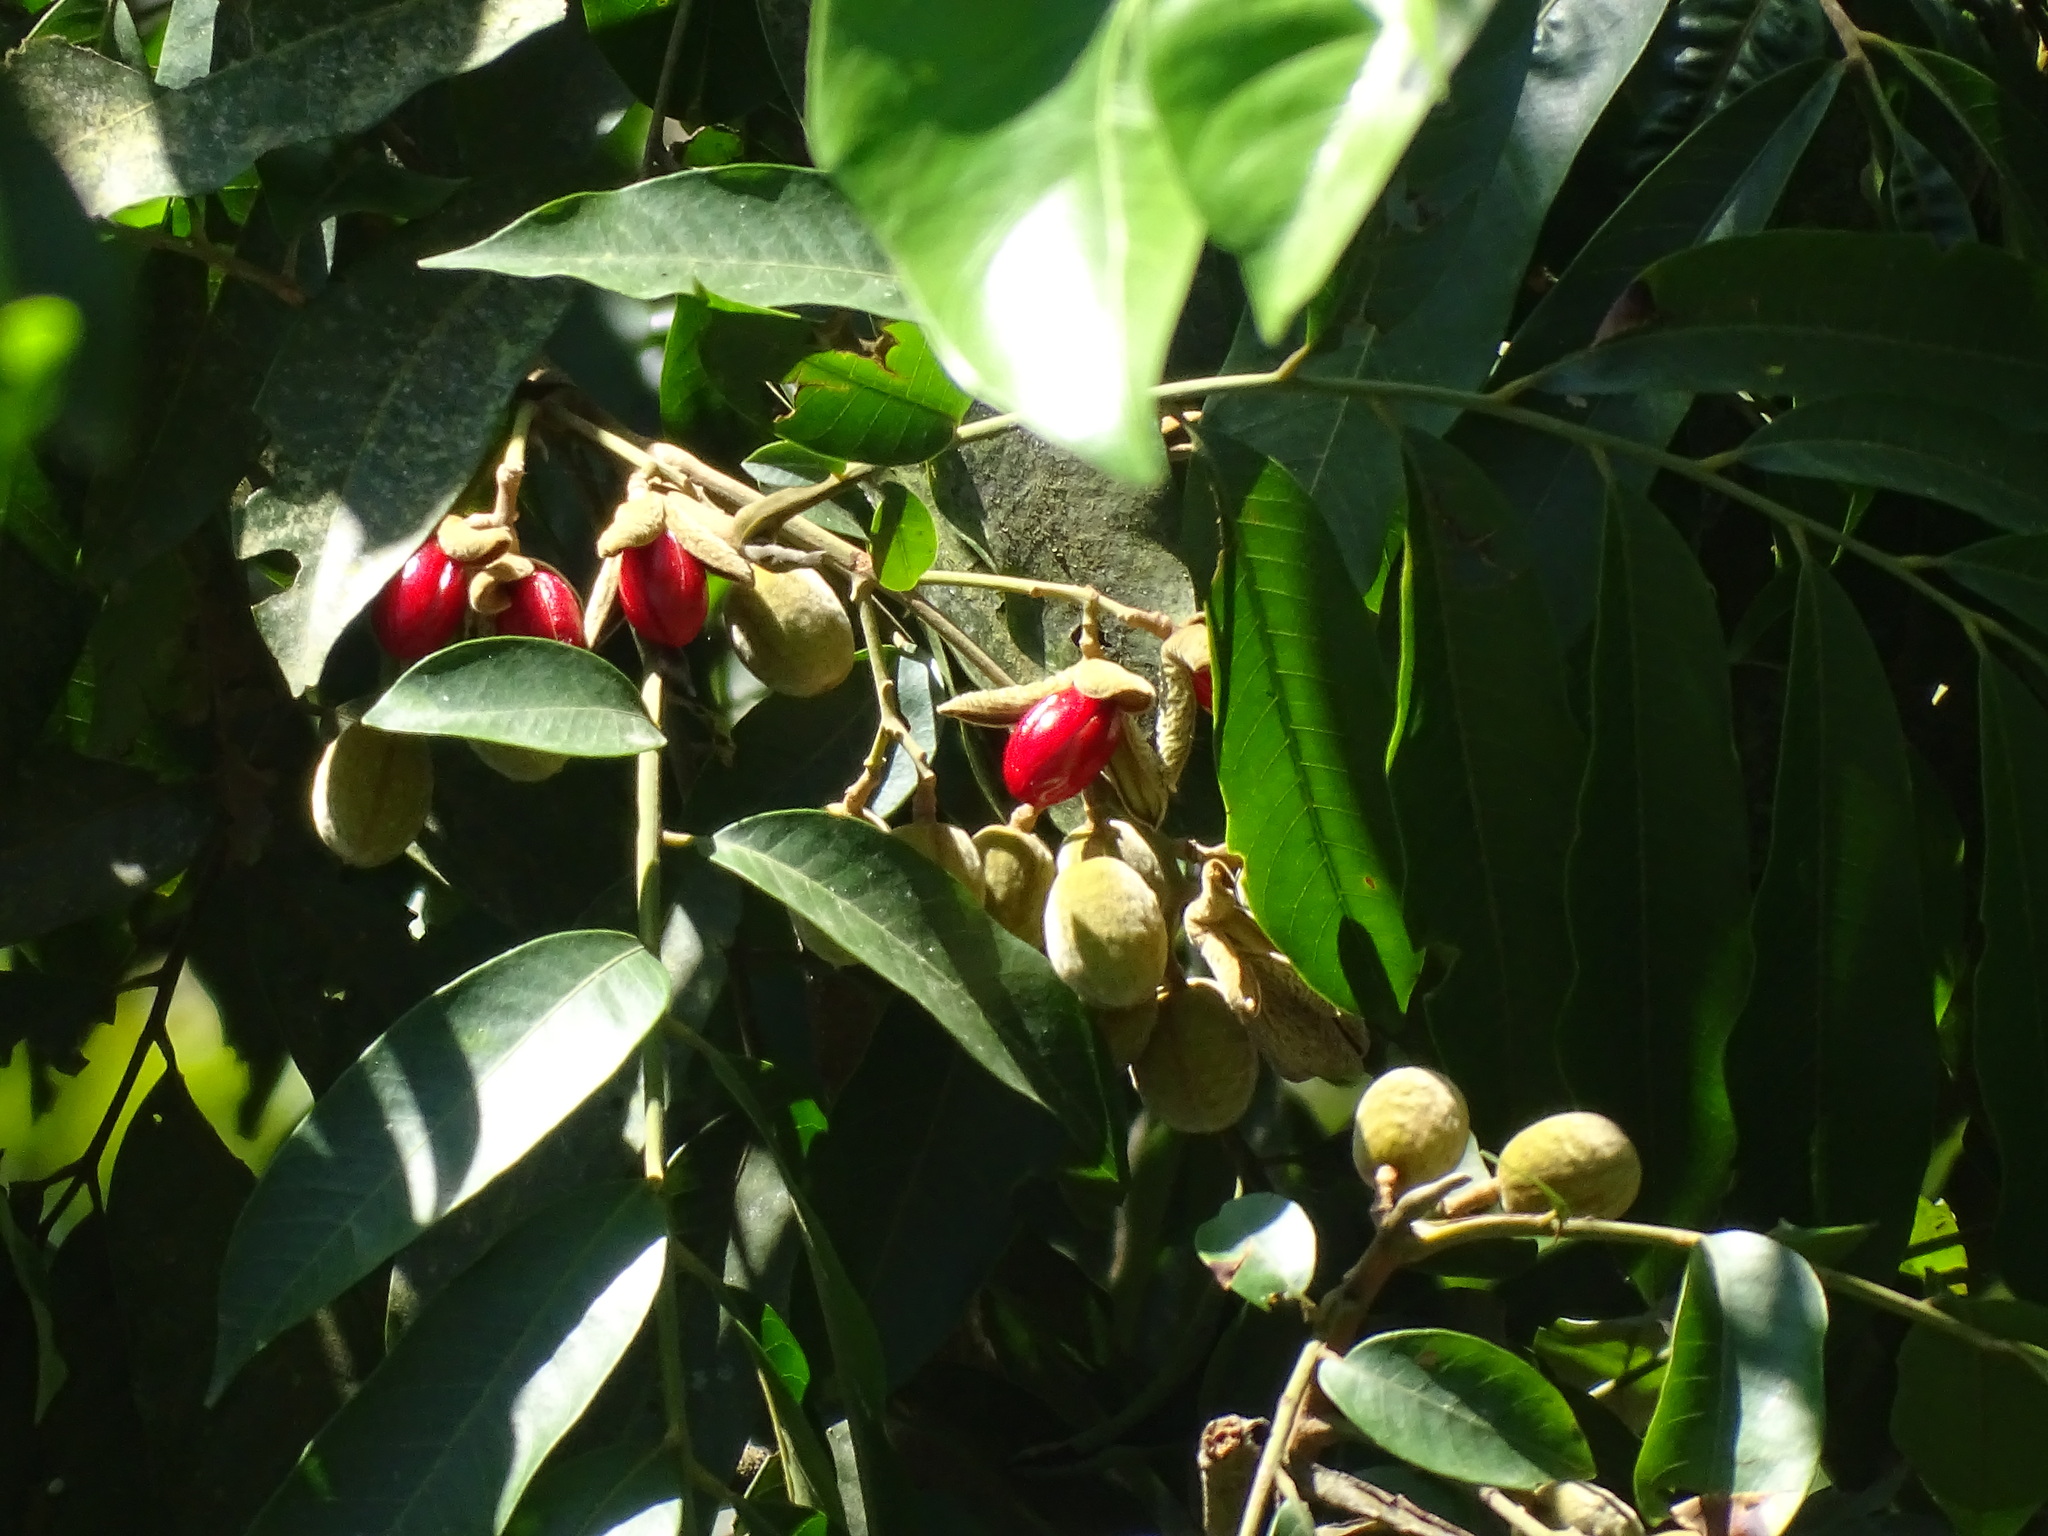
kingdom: Plantae
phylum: Tracheophyta
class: Magnoliopsida
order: Sapindales
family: Meliaceae
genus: Trichilia
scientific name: Trichilia moschata
